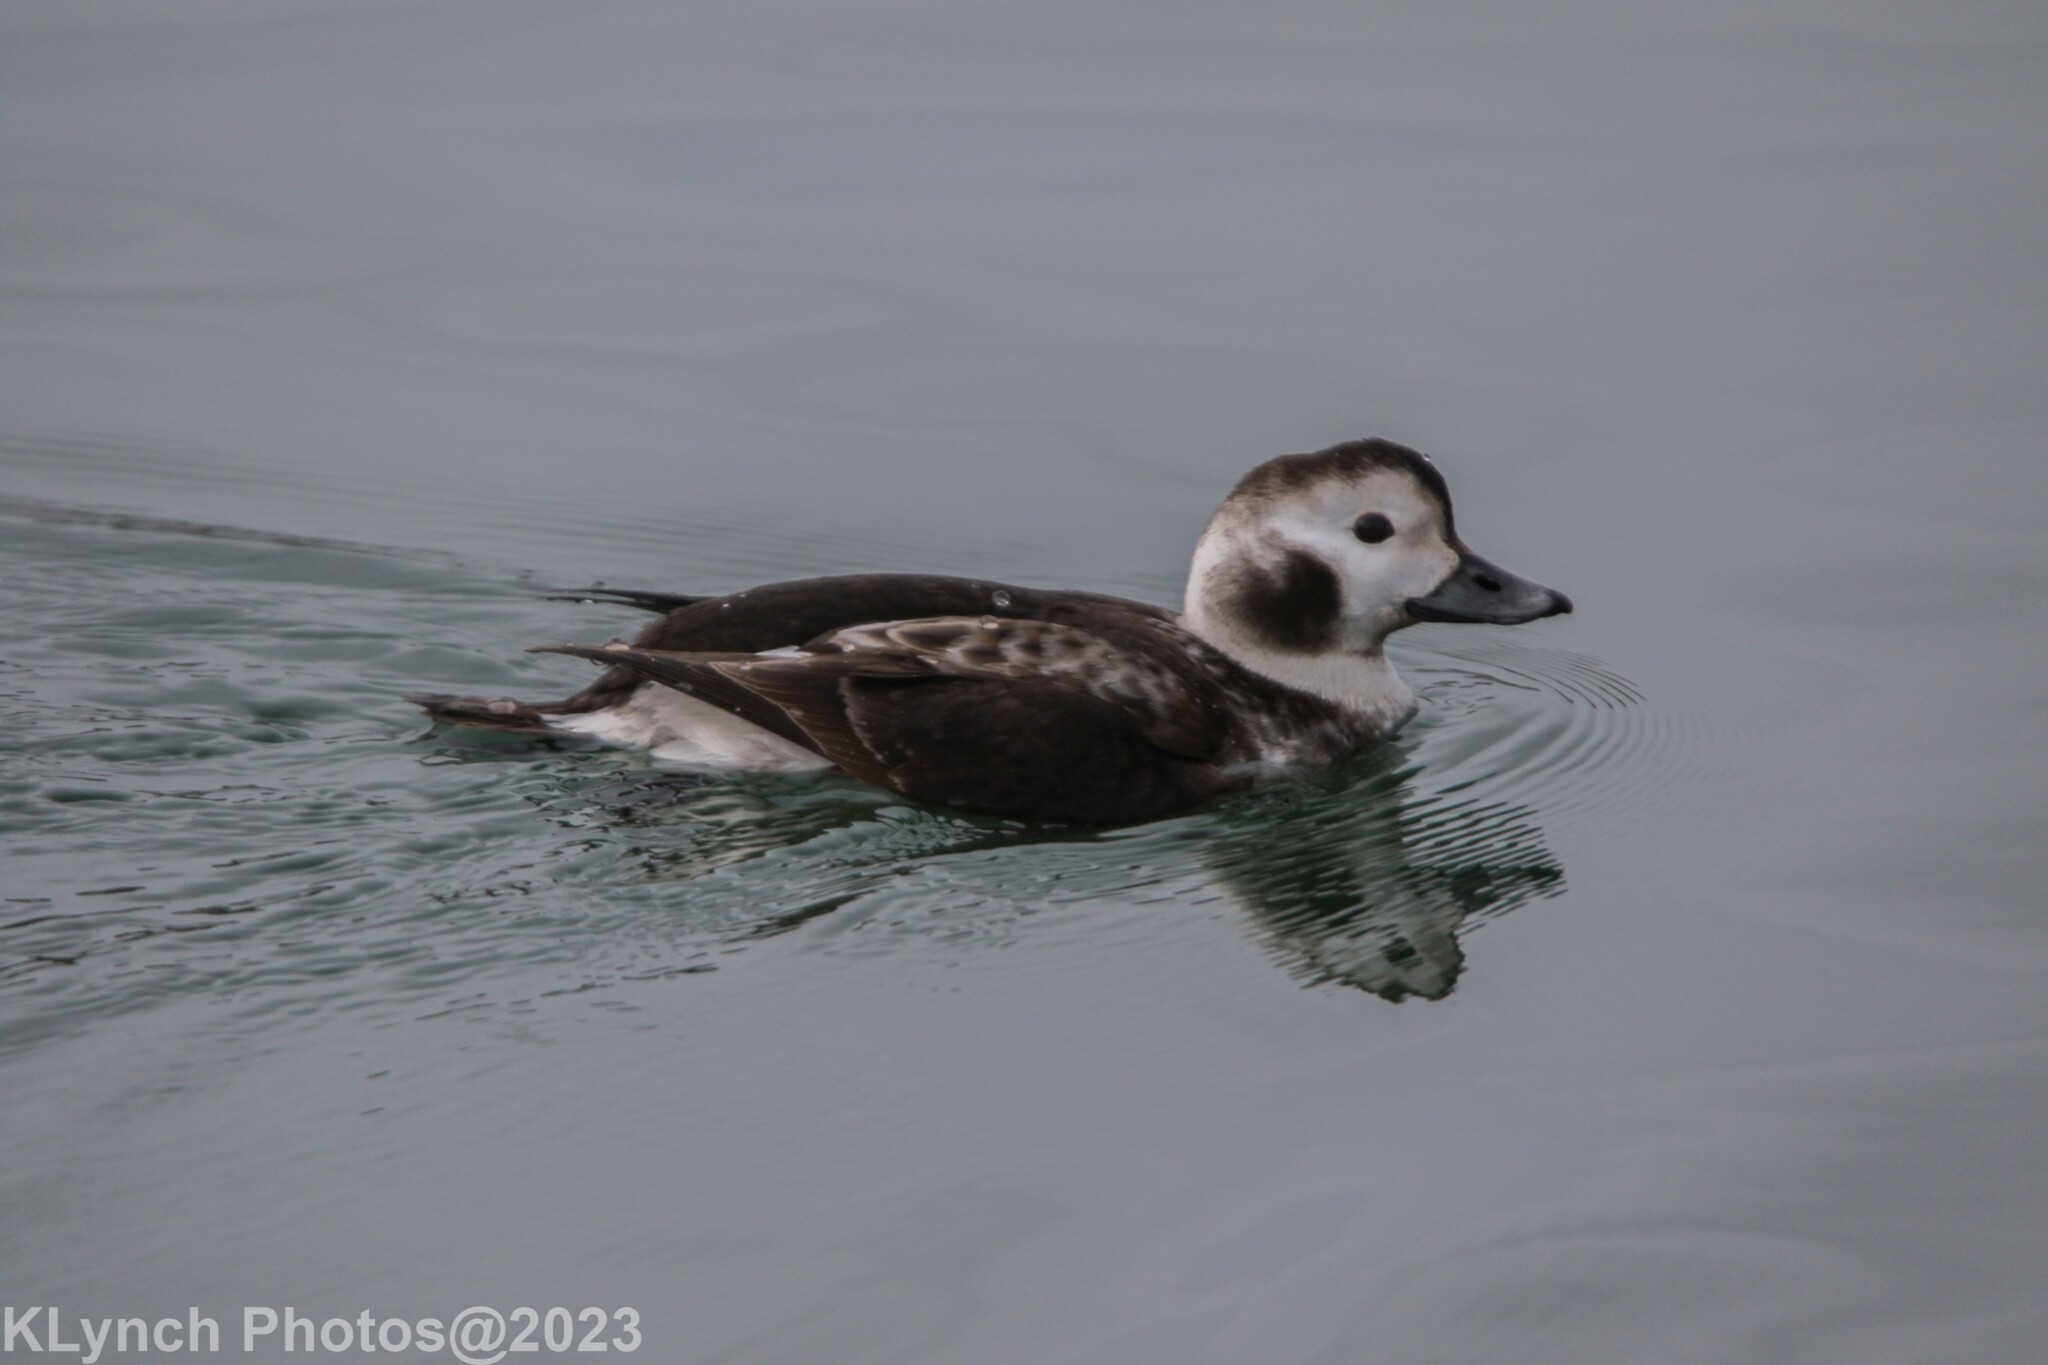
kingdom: Animalia
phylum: Chordata
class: Aves
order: Anseriformes
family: Anatidae
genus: Clangula
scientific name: Clangula hyemalis
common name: Long-tailed duck
